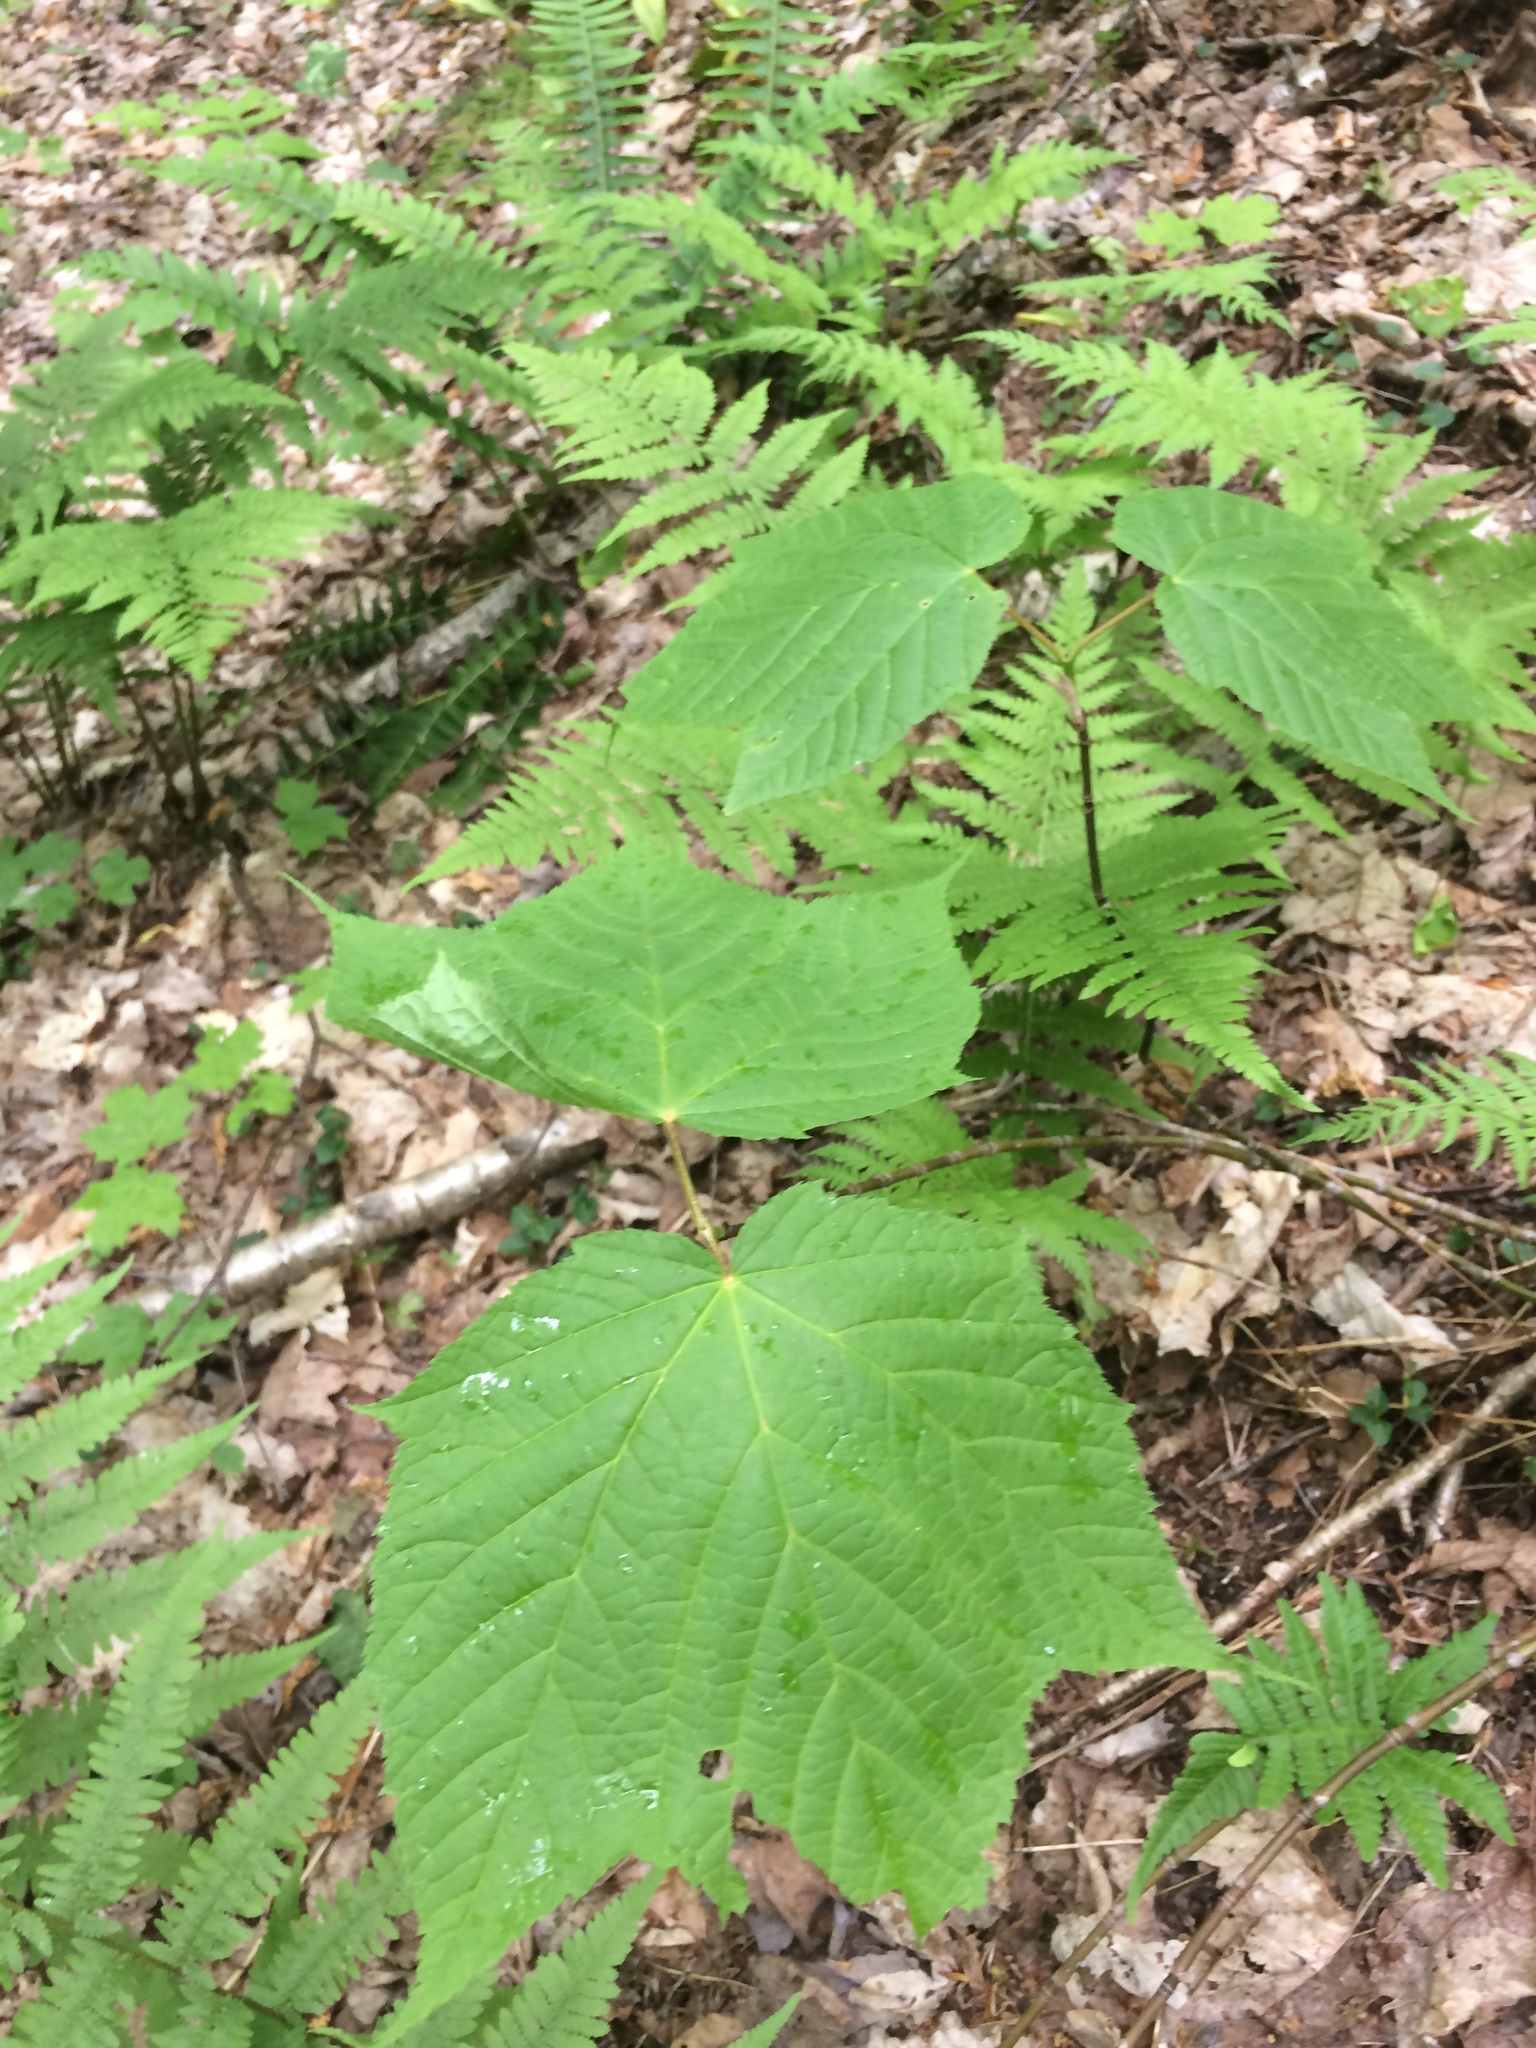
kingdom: Plantae
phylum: Tracheophyta
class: Magnoliopsida
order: Sapindales
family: Sapindaceae
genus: Acer
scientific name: Acer pensylvanicum
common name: Moosewood
